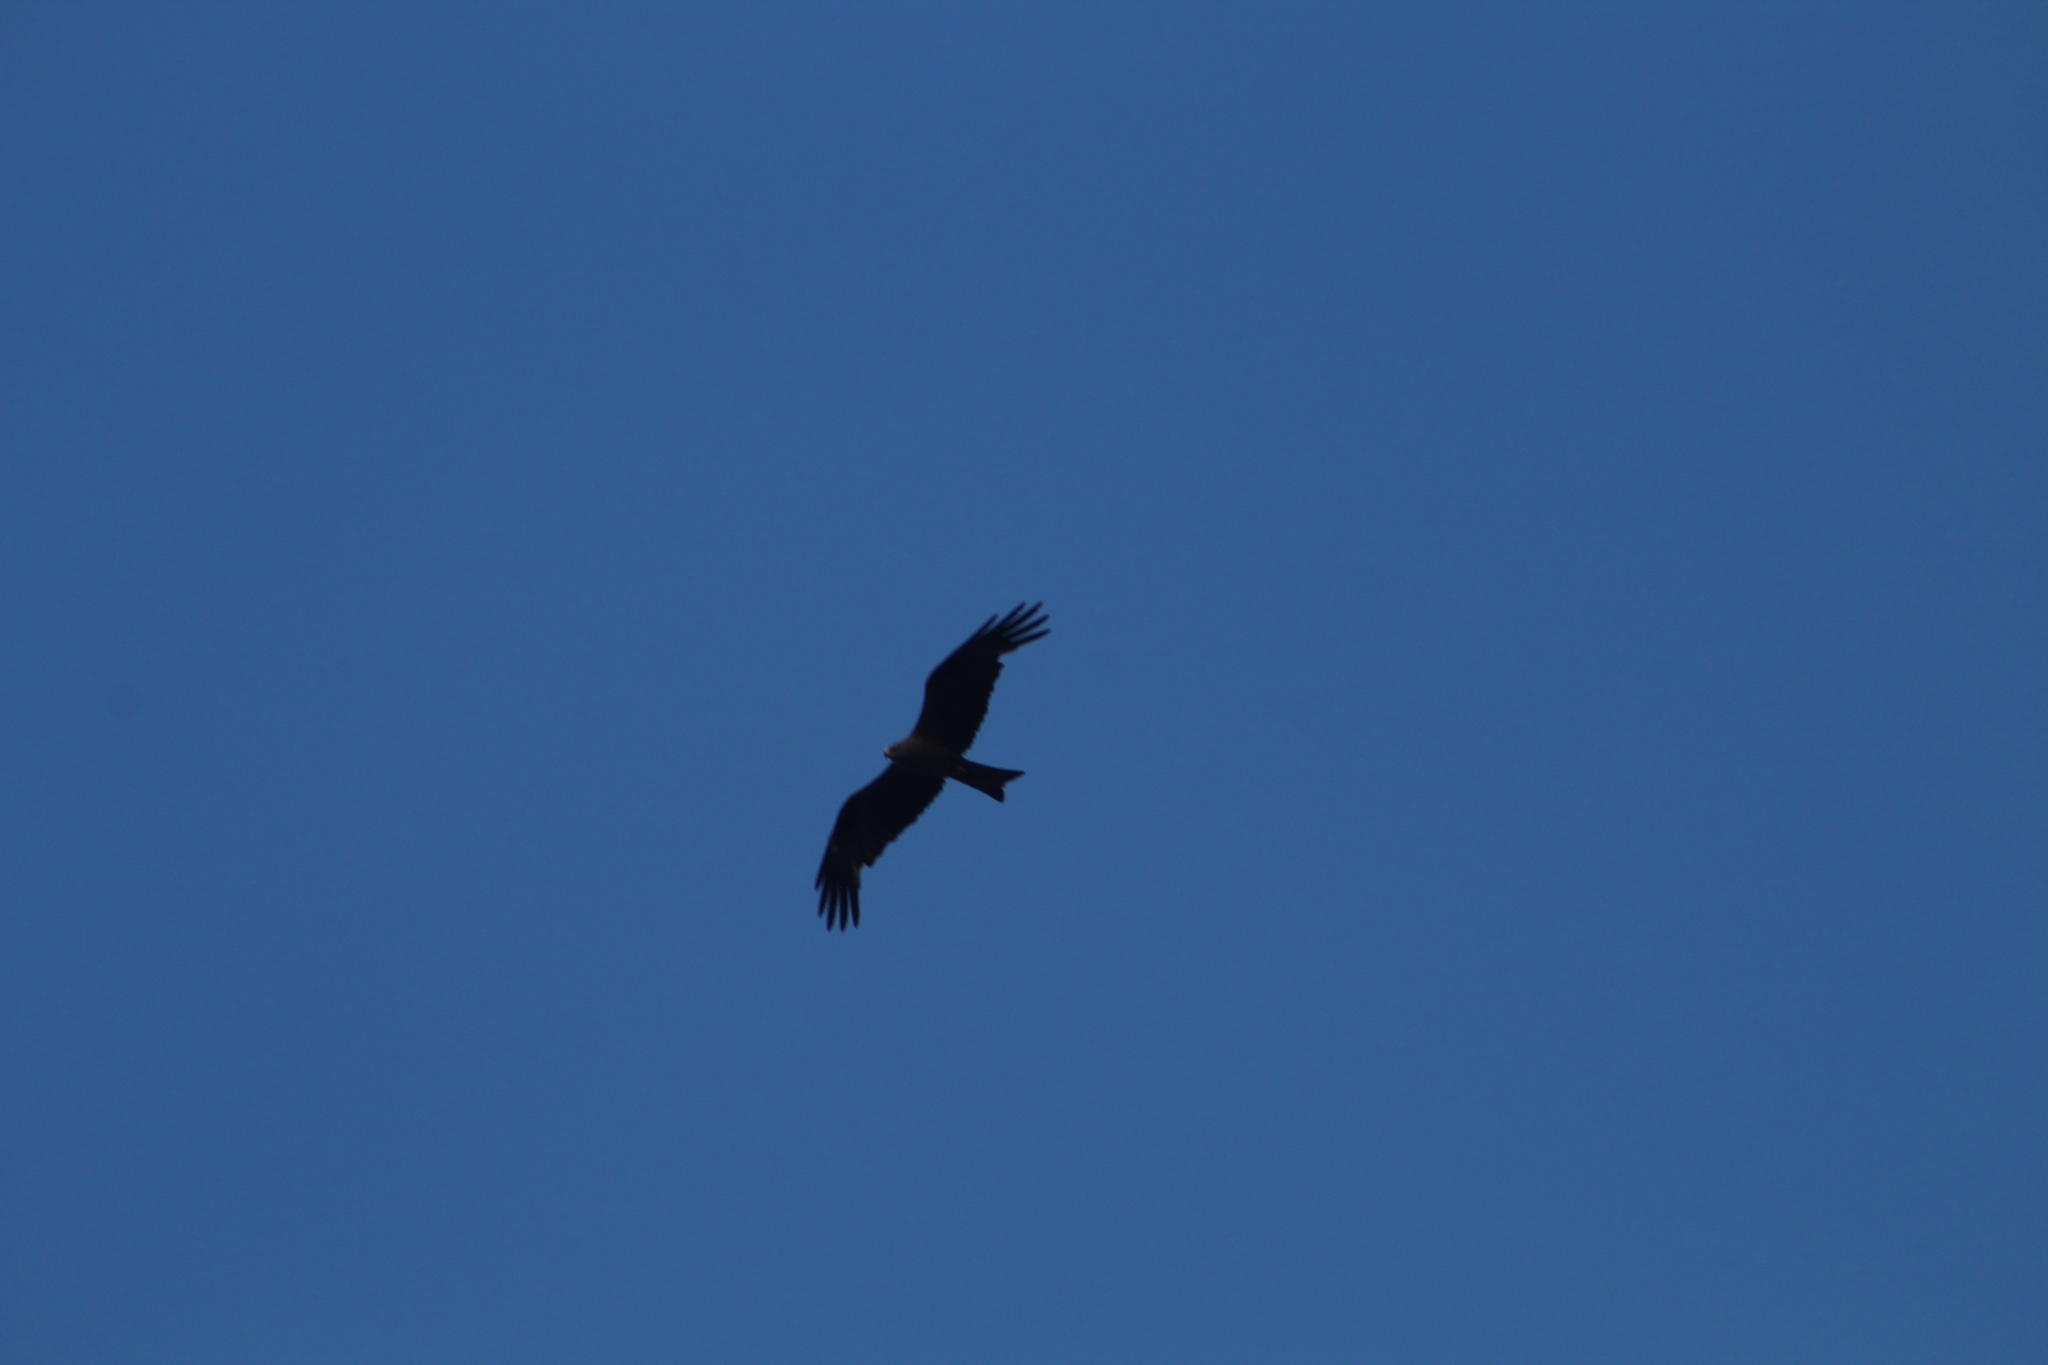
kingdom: Animalia
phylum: Chordata
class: Aves
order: Accipitriformes
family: Accipitridae
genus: Milvus
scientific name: Milvus migrans
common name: Black kite
